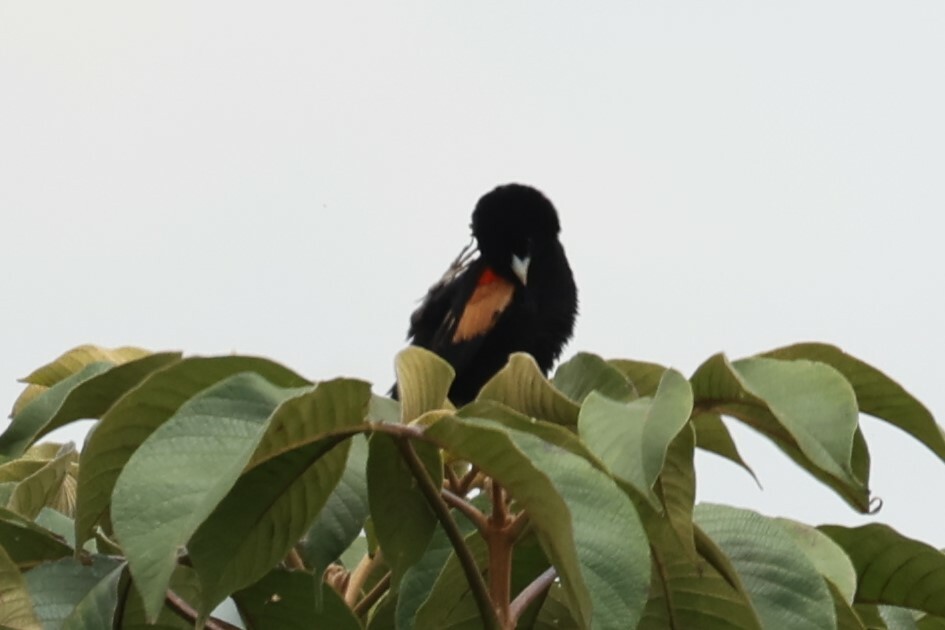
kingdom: Animalia
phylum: Chordata
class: Aves
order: Passeriformes
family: Ploceidae
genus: Euplectes
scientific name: Euplectes axillaris
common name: Fan-tailed widowbird
